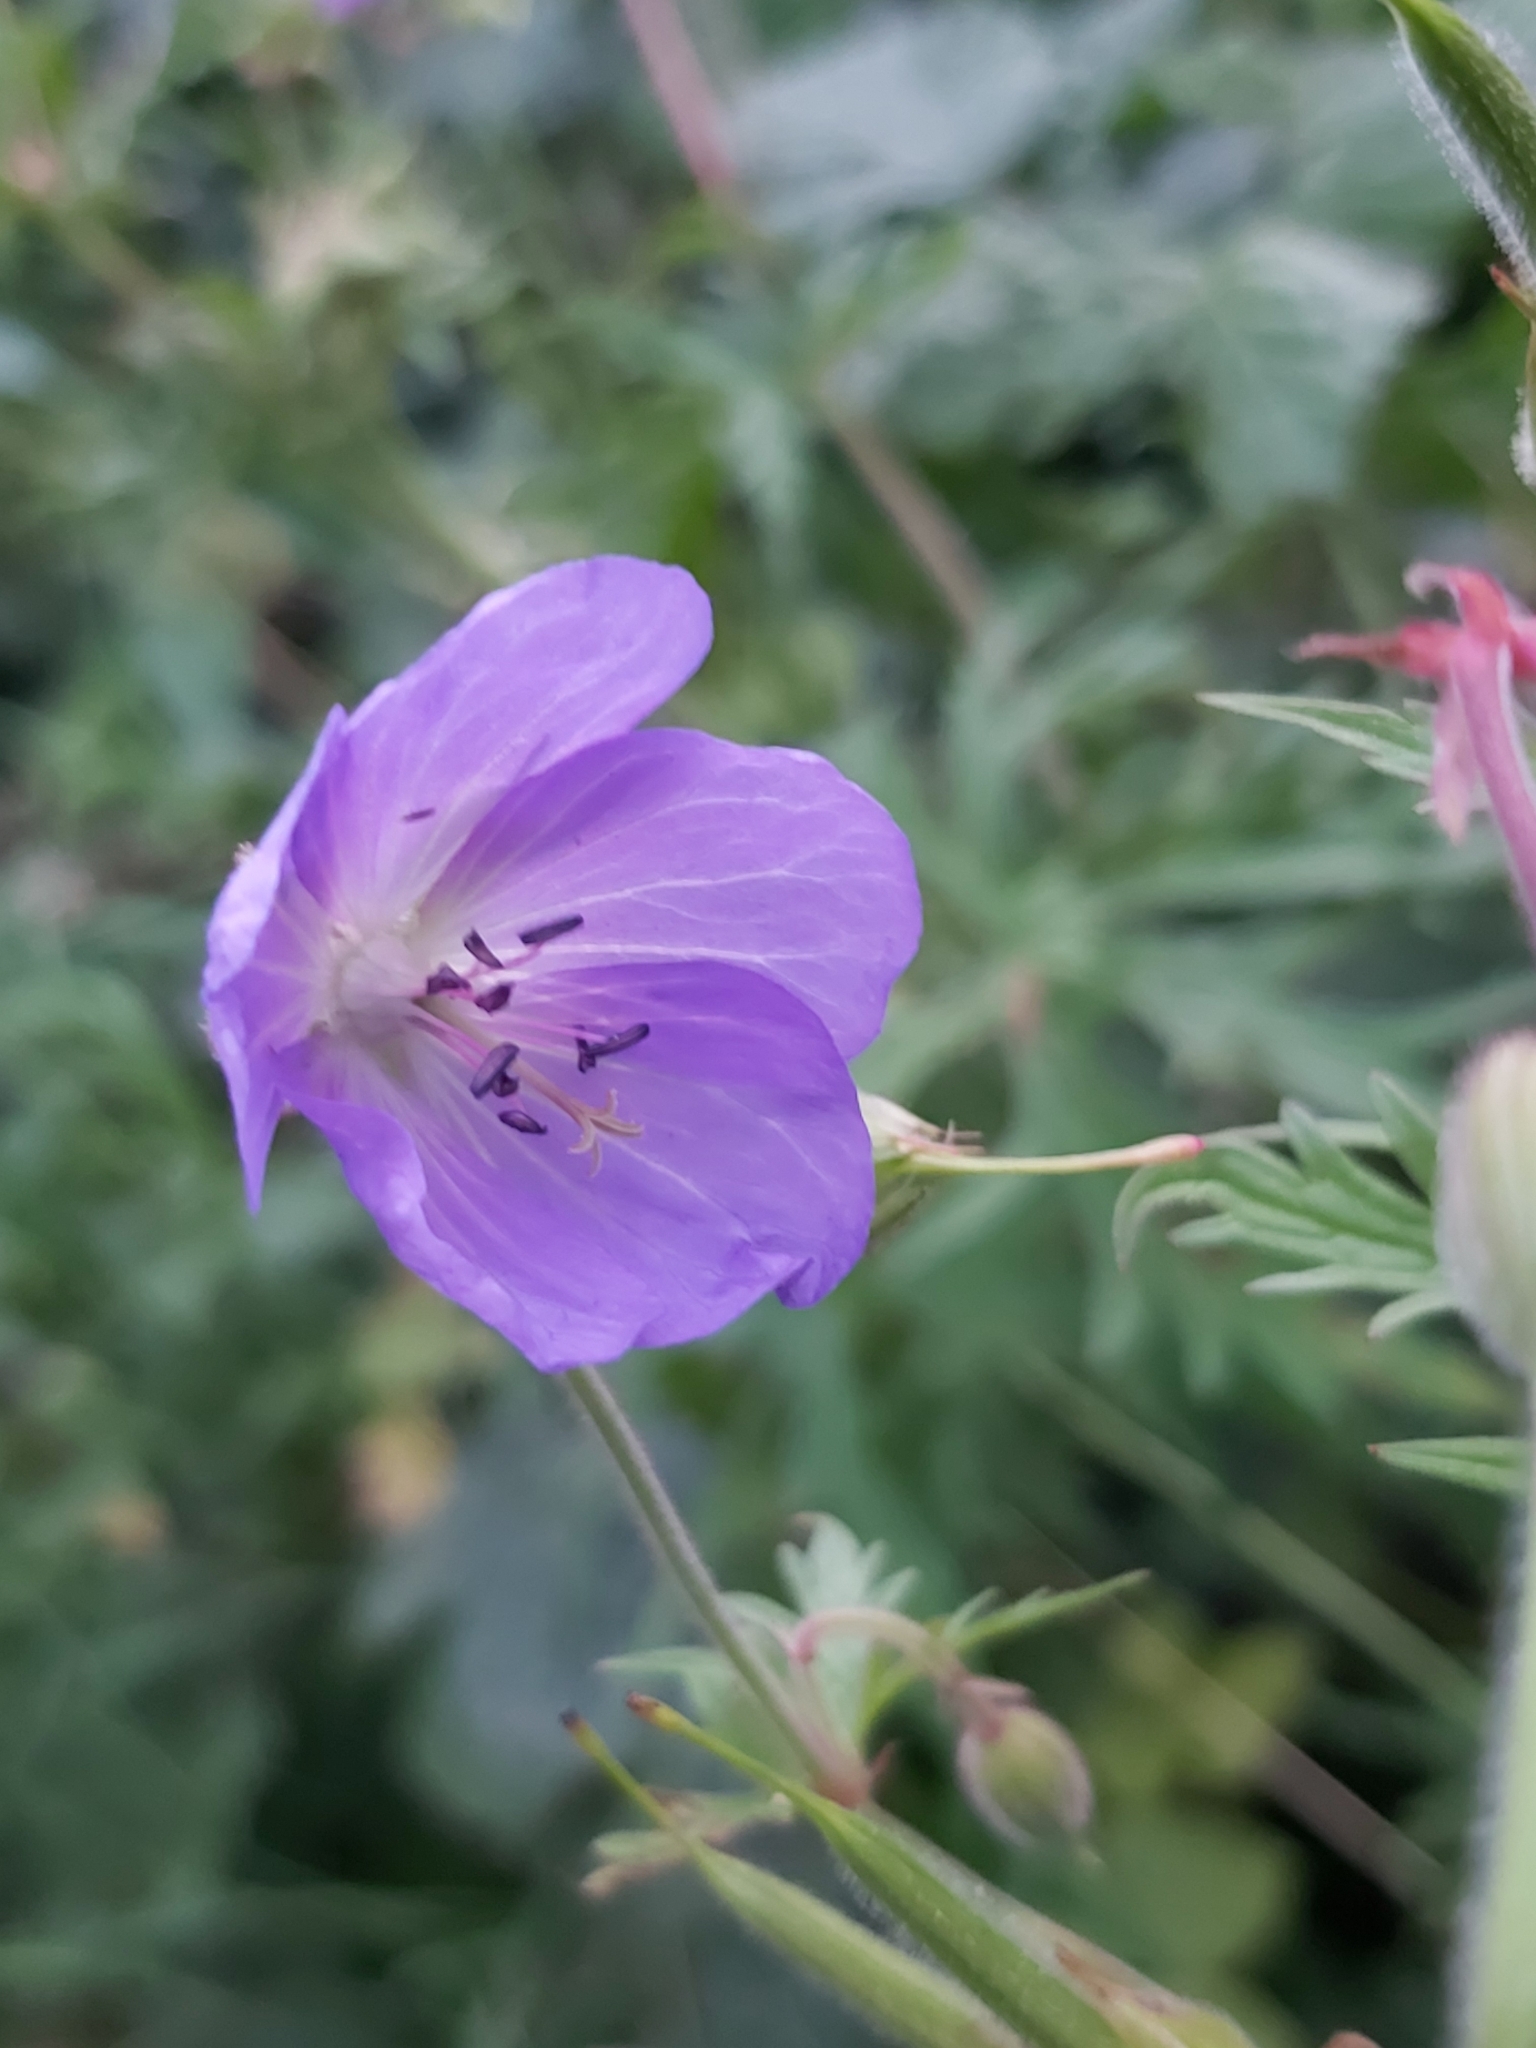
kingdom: Plantae
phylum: Tracheophyta
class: Magnoliopsida
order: Geraniales
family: Geraniaceae
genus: Geranium
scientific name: Geranium pratense
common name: Meadow crane's-bill
